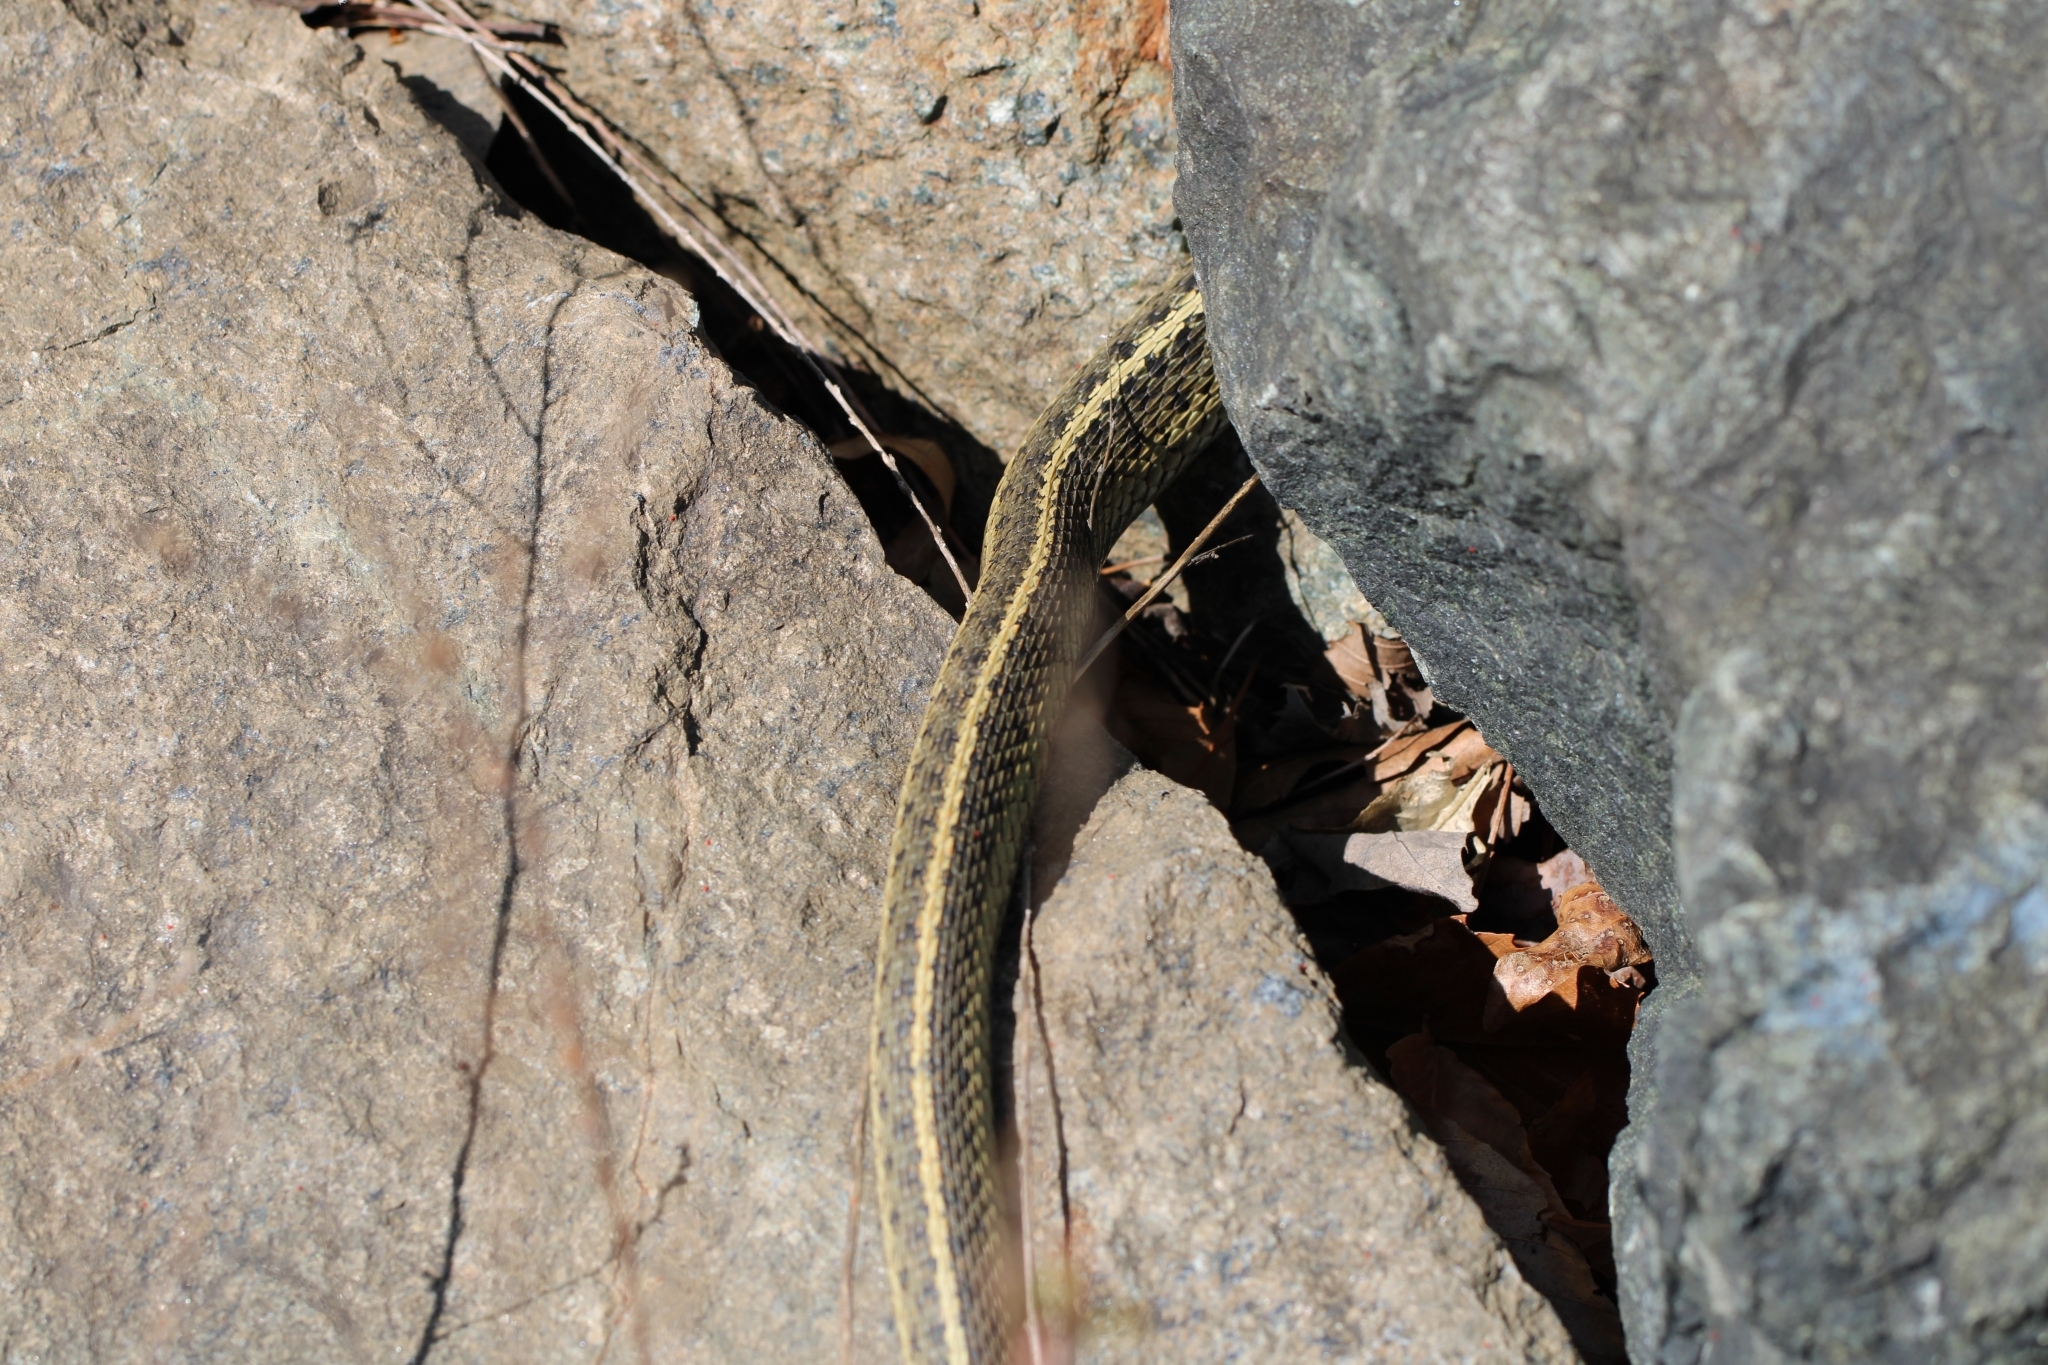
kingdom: Animalia
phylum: Chordata
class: Squamata
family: Colubridae
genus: Thamnophis
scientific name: Thamnophis sirtalis
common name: Common garter snake
